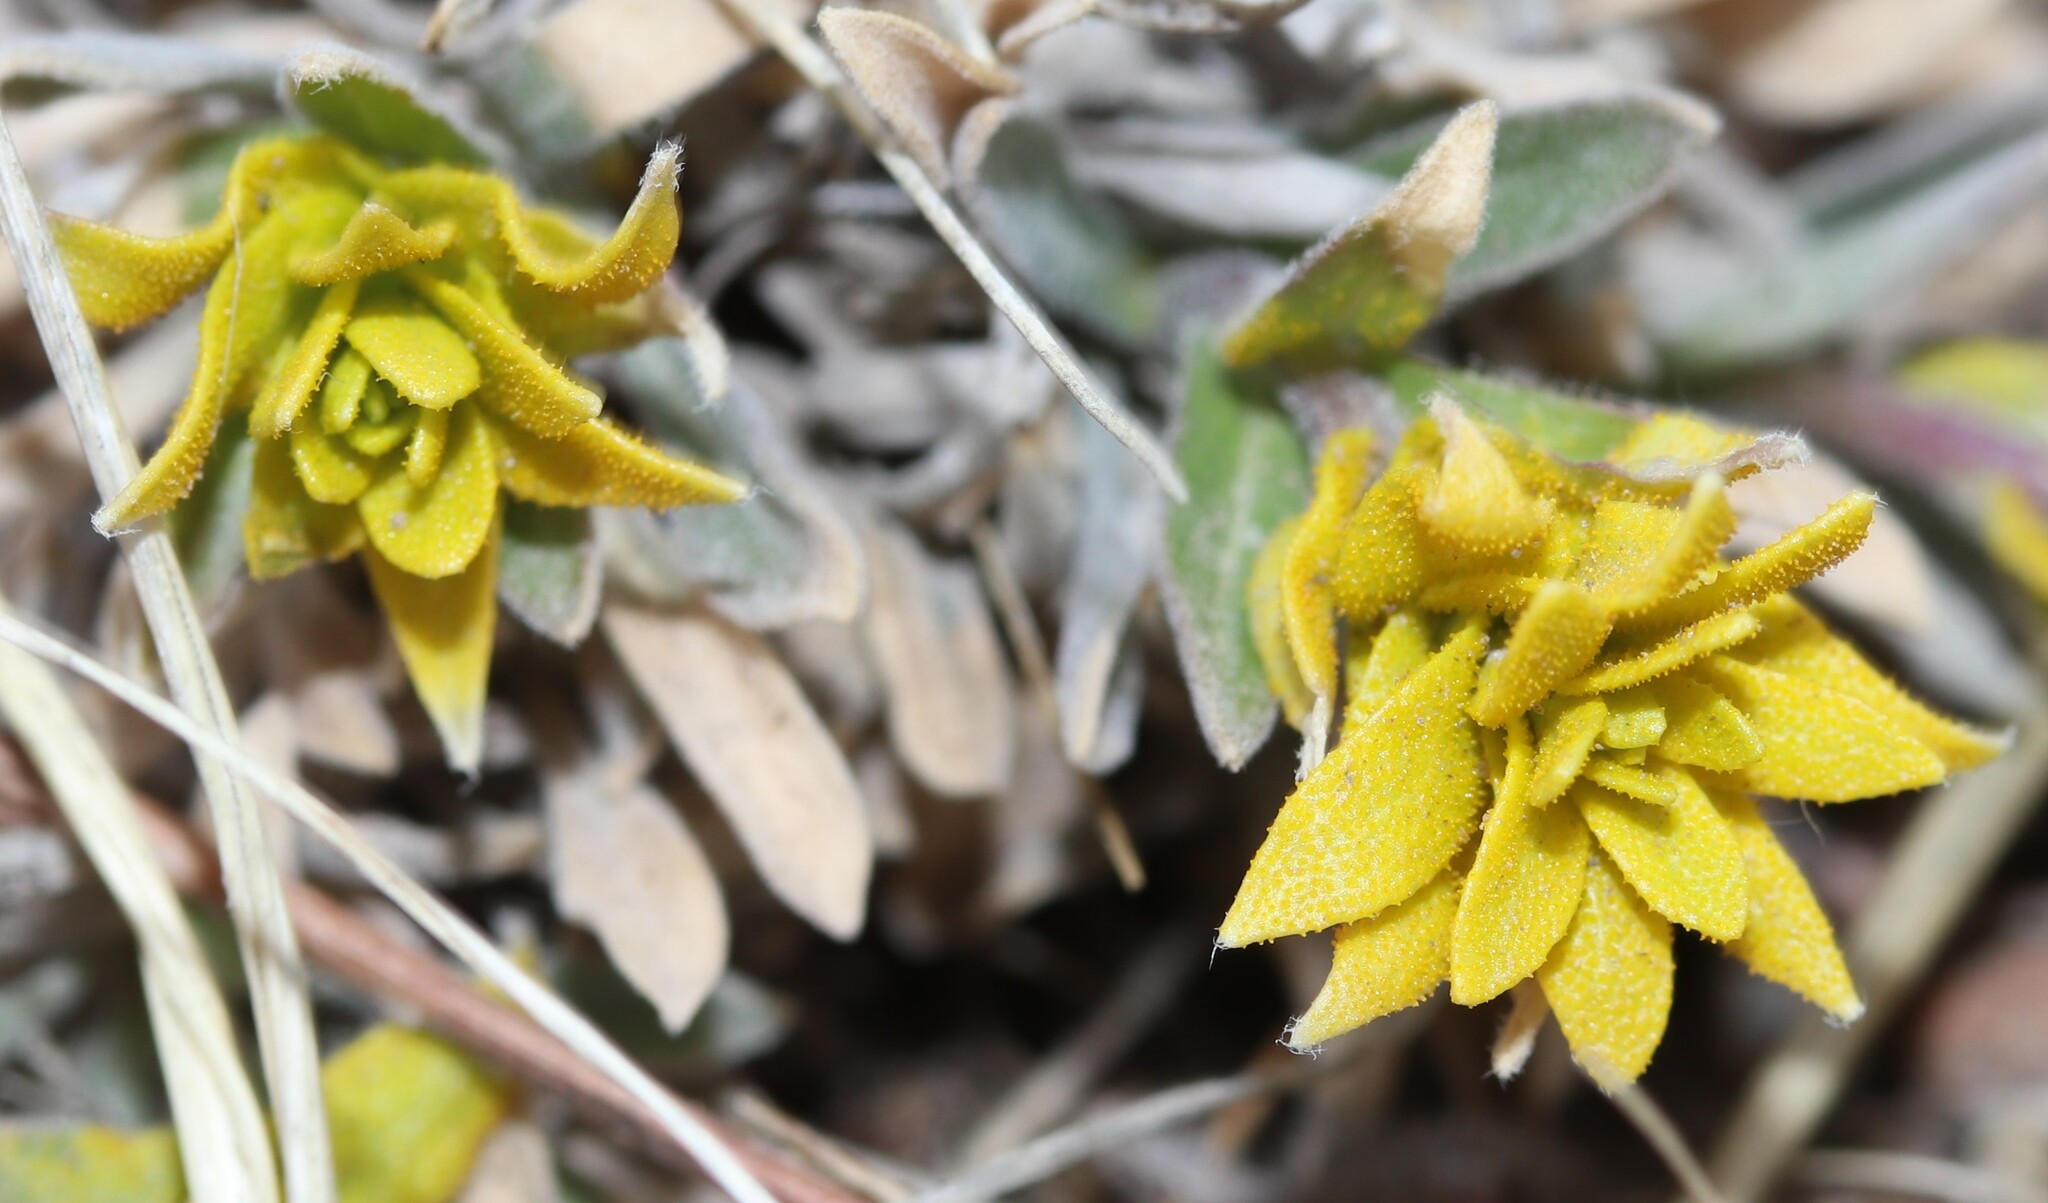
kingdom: Fungi
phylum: Basidiomycota
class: Pucciniomycetes
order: Pucciniales
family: Pucciniaceae
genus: Puccinia
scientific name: Puccinia monoica
